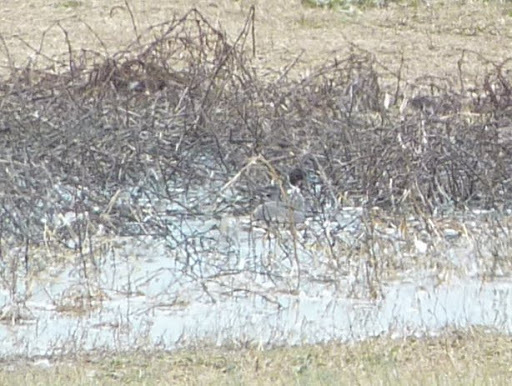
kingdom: Animalia
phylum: Chordata
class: Aves
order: Anseriformes
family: Anatidae
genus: Anas
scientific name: Anas acuta
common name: Northern pintail
